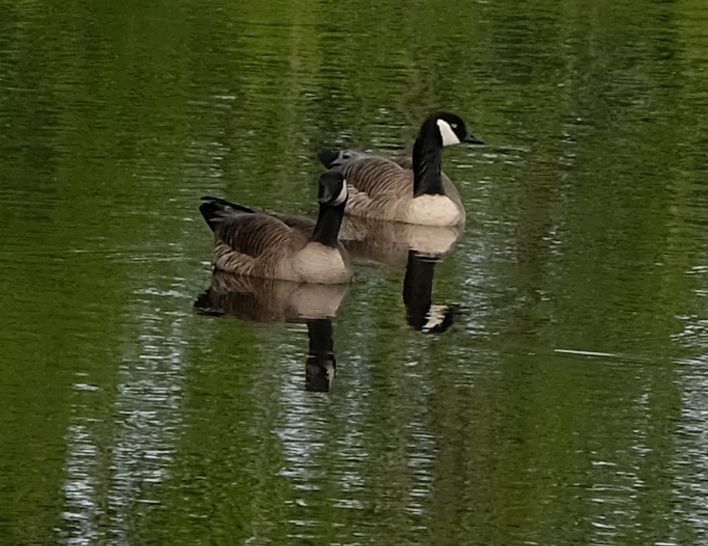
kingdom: Animalia
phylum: Chordata
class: Aves
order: Anseriformes
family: Anatidae
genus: Branta
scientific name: Branta canadensis
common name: Canada goose
